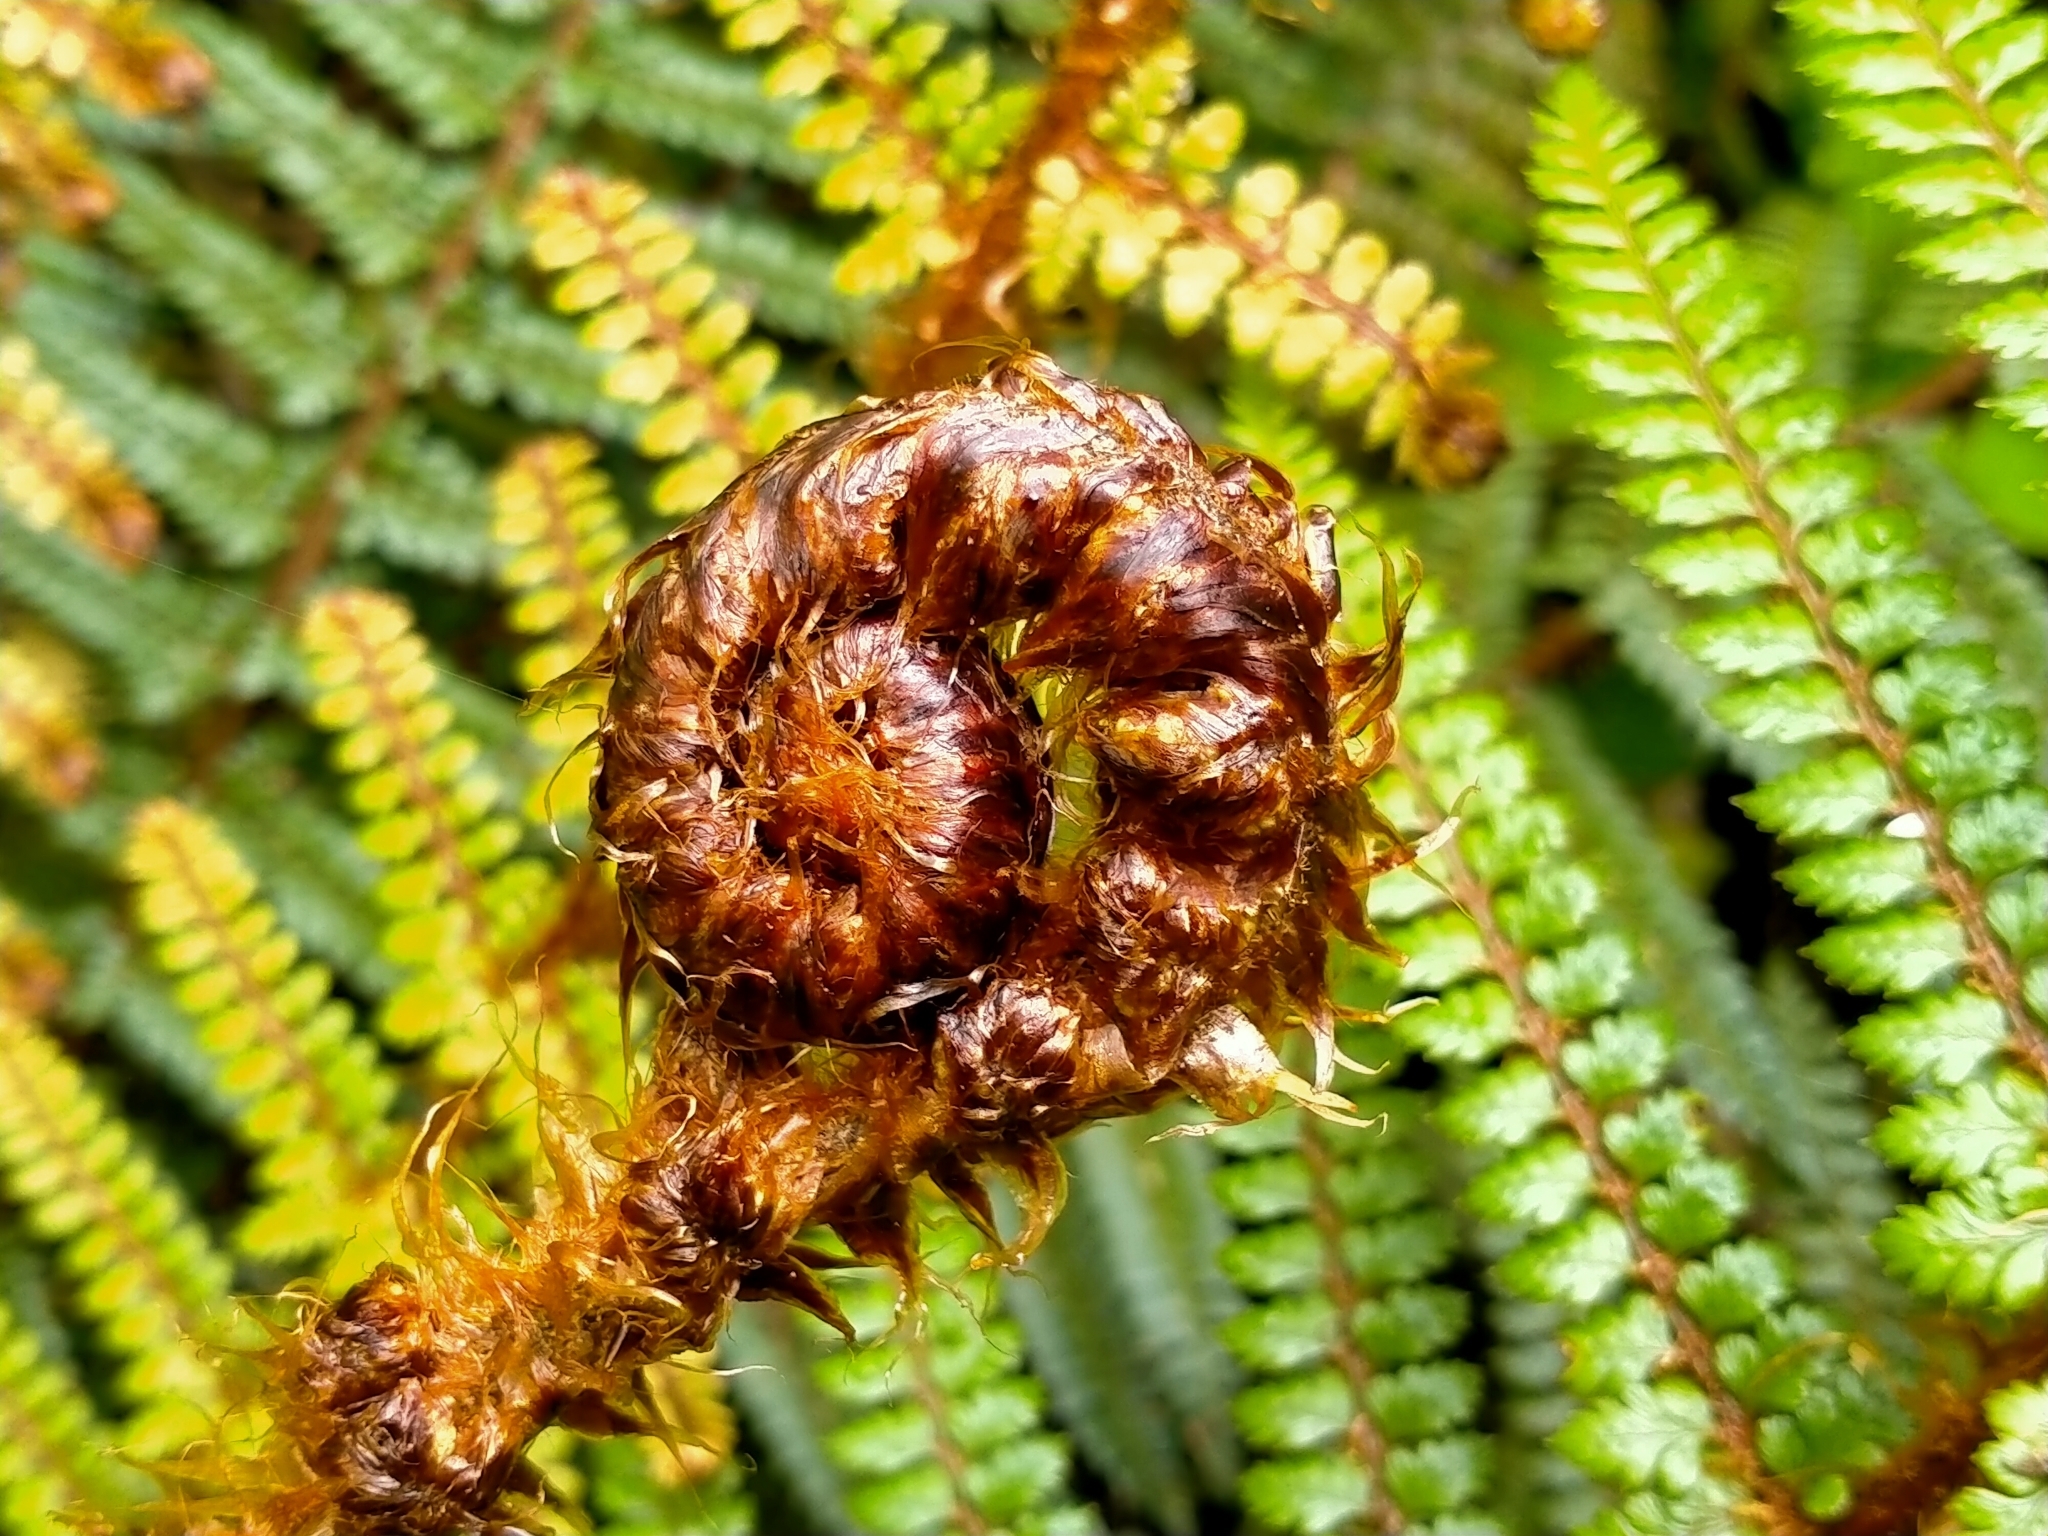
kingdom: Plantae
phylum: Tracheophyta
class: Polypodiopsida
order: Polypodiales
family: Dryopteridaceae
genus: Polystichum
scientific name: Polystichum vestitum
